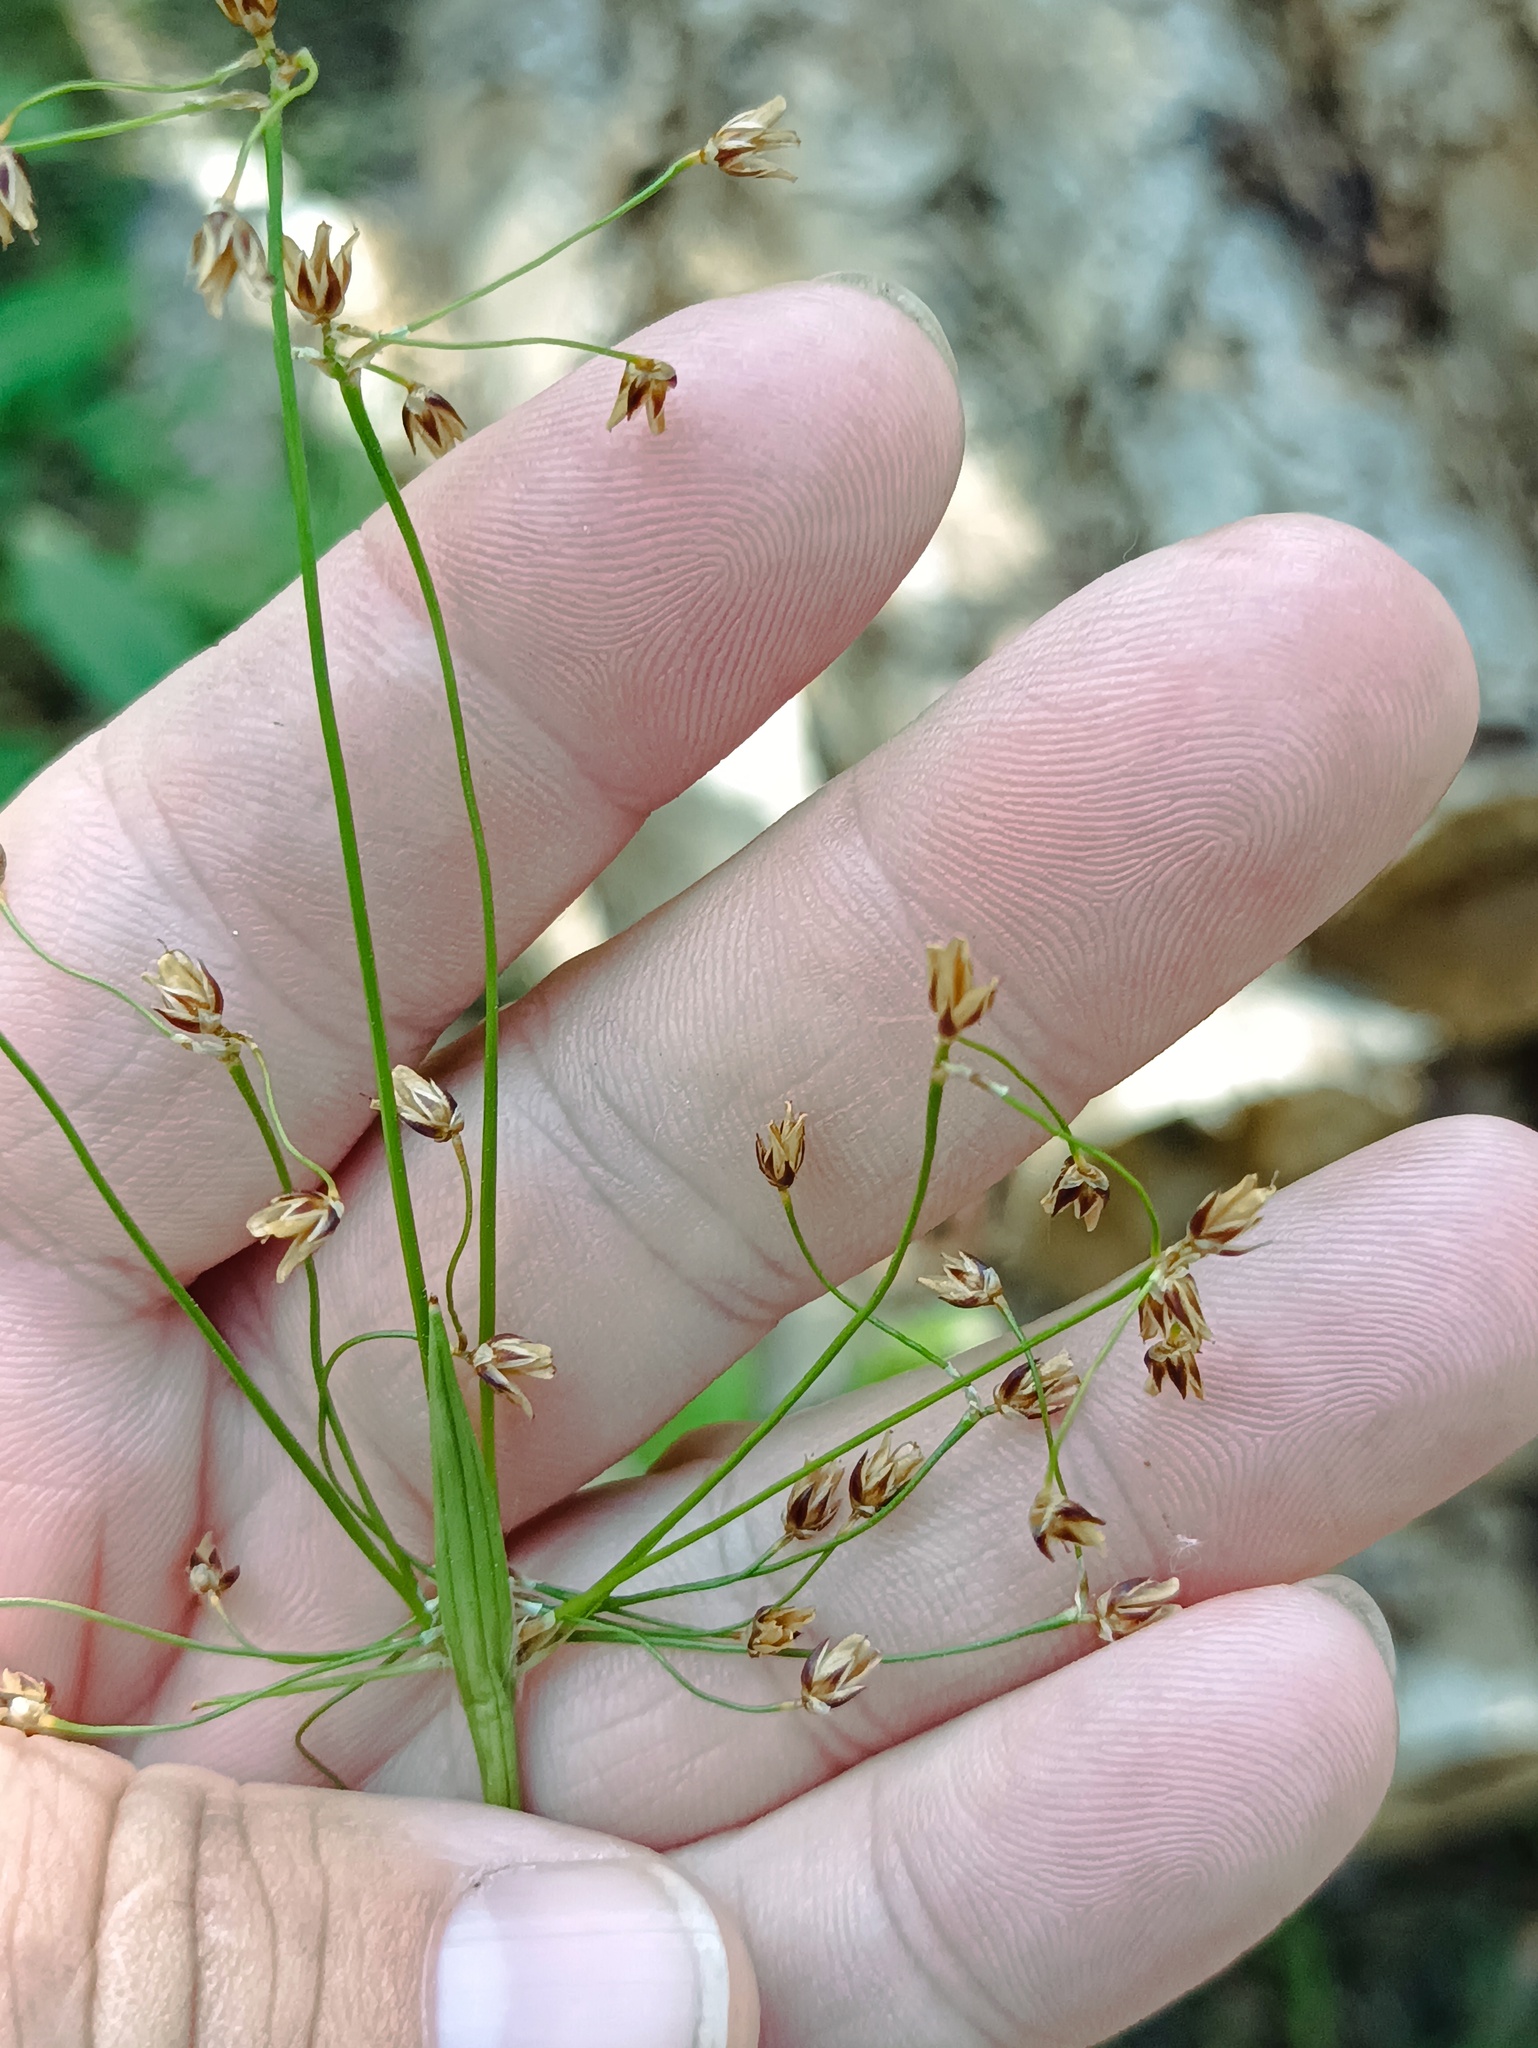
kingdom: Plantae
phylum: Tracheophyta
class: Liliopsida
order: Poales
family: Juncaceae
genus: Luzula
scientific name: Luzula pilosa
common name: Hairy wood-rush
